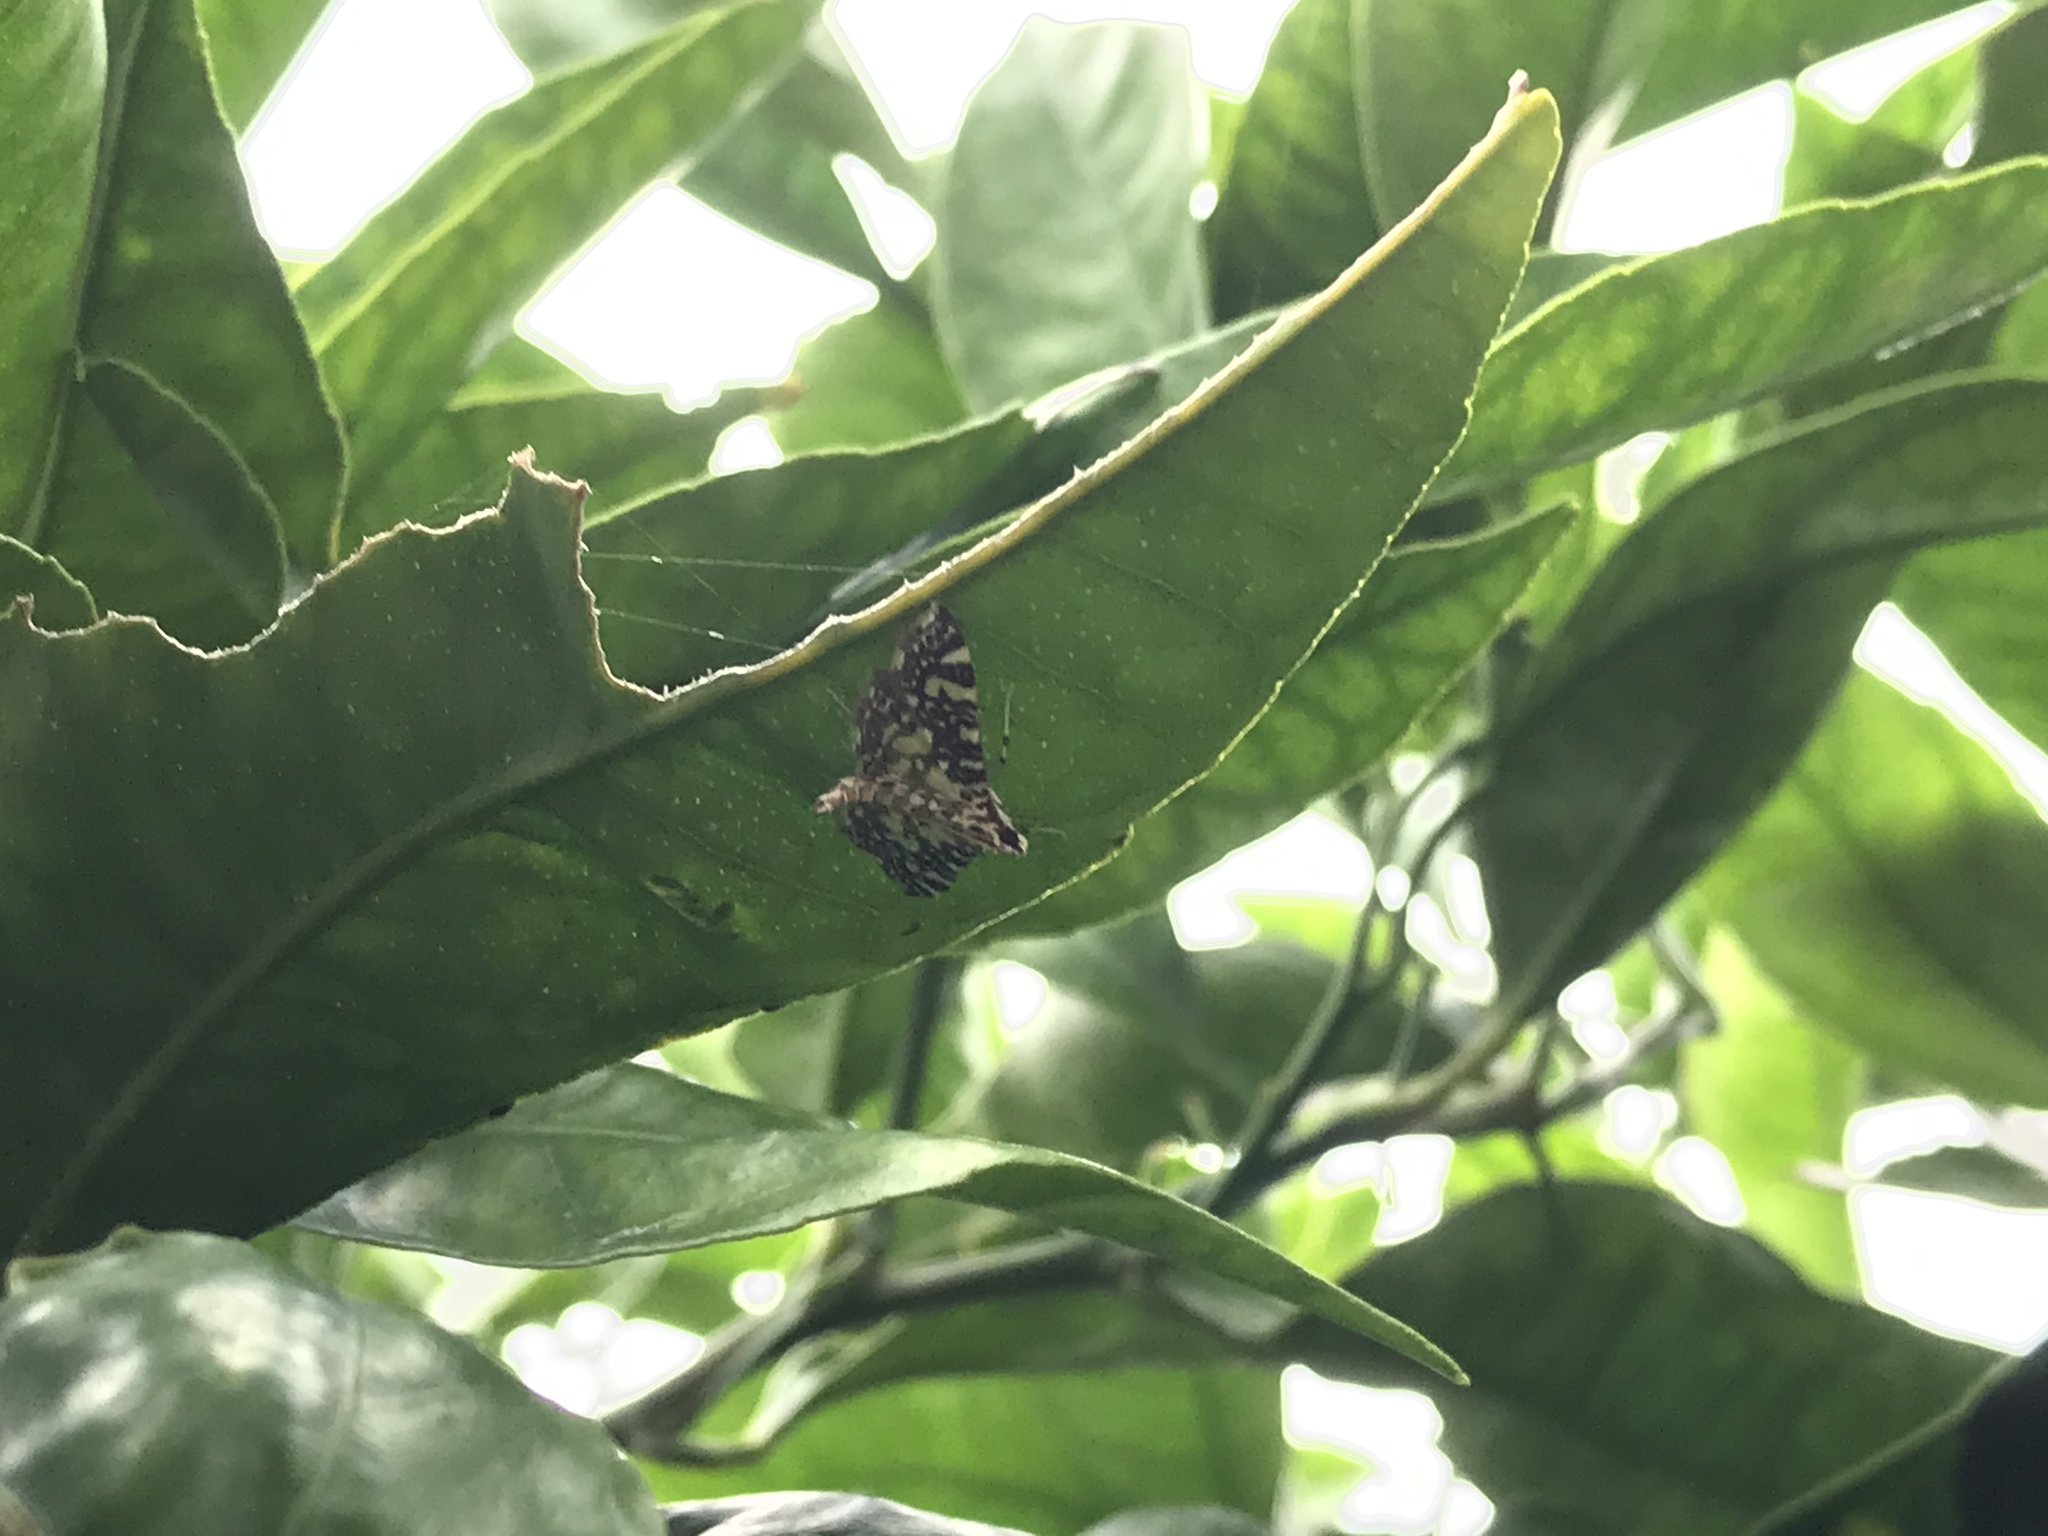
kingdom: Animalia
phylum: Arthropoda
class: Insecta
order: Lepidoptera
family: Crambidae
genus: Glyphodes
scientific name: Glyphodes onychinalis
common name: Swan plant moth
